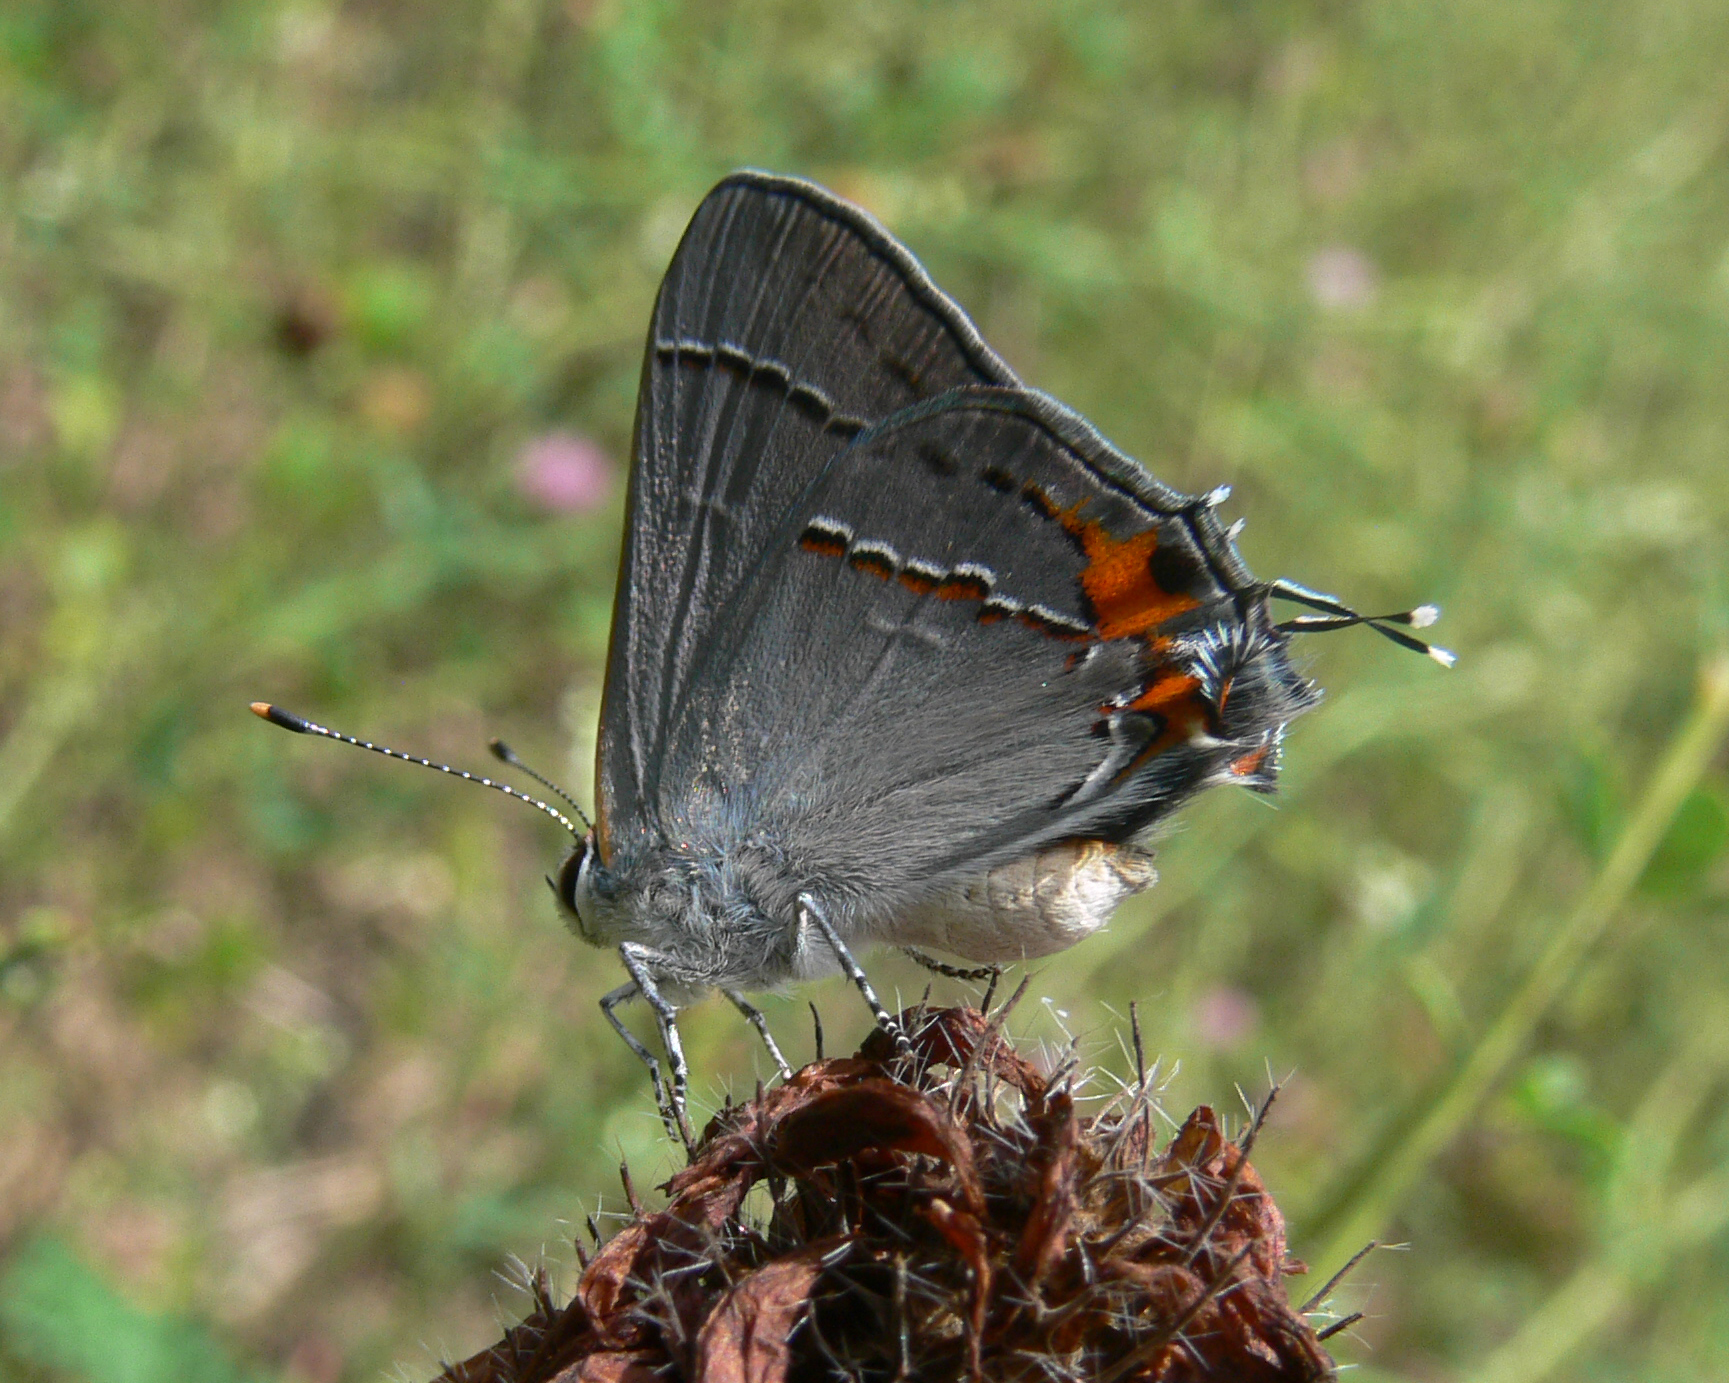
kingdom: Animalia
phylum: Arthropoda
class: Insecta
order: Lepidoptera
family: Lycaenidae
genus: Strymon
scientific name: Strymon melinus
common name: Gray hairstreak
